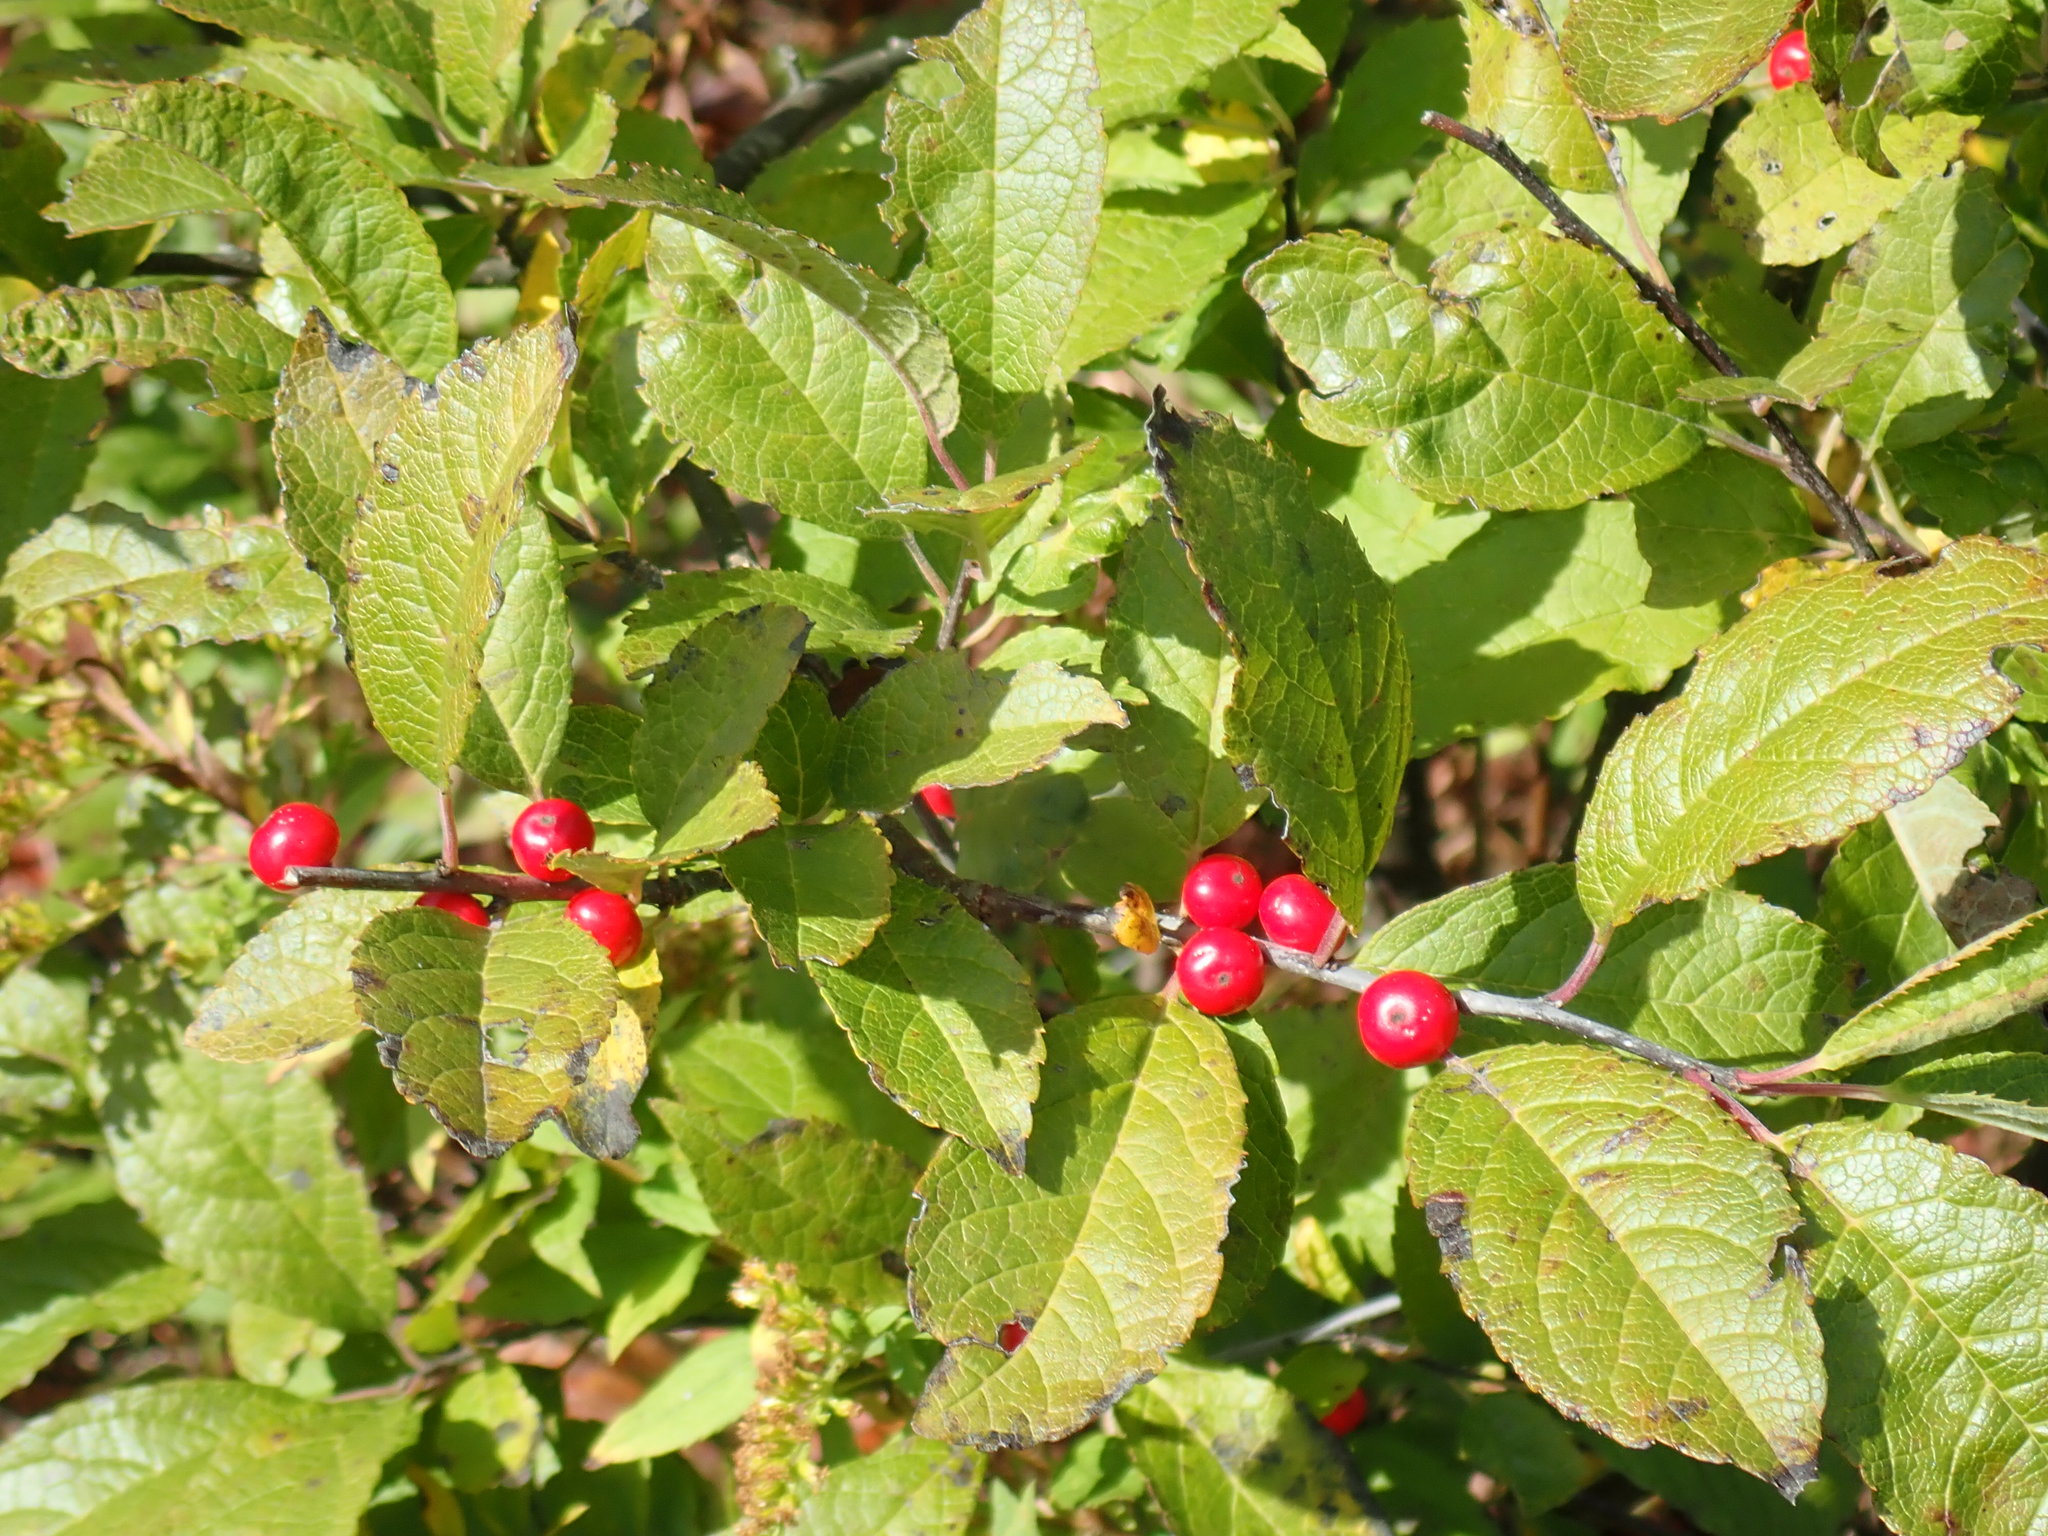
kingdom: Plantae
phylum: Tracheophyta
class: Magnoliopsida
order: Aquifoliales
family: Aquifoliaceae
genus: Ilex
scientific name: Ilex verticillata
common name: Virginia winterberry
